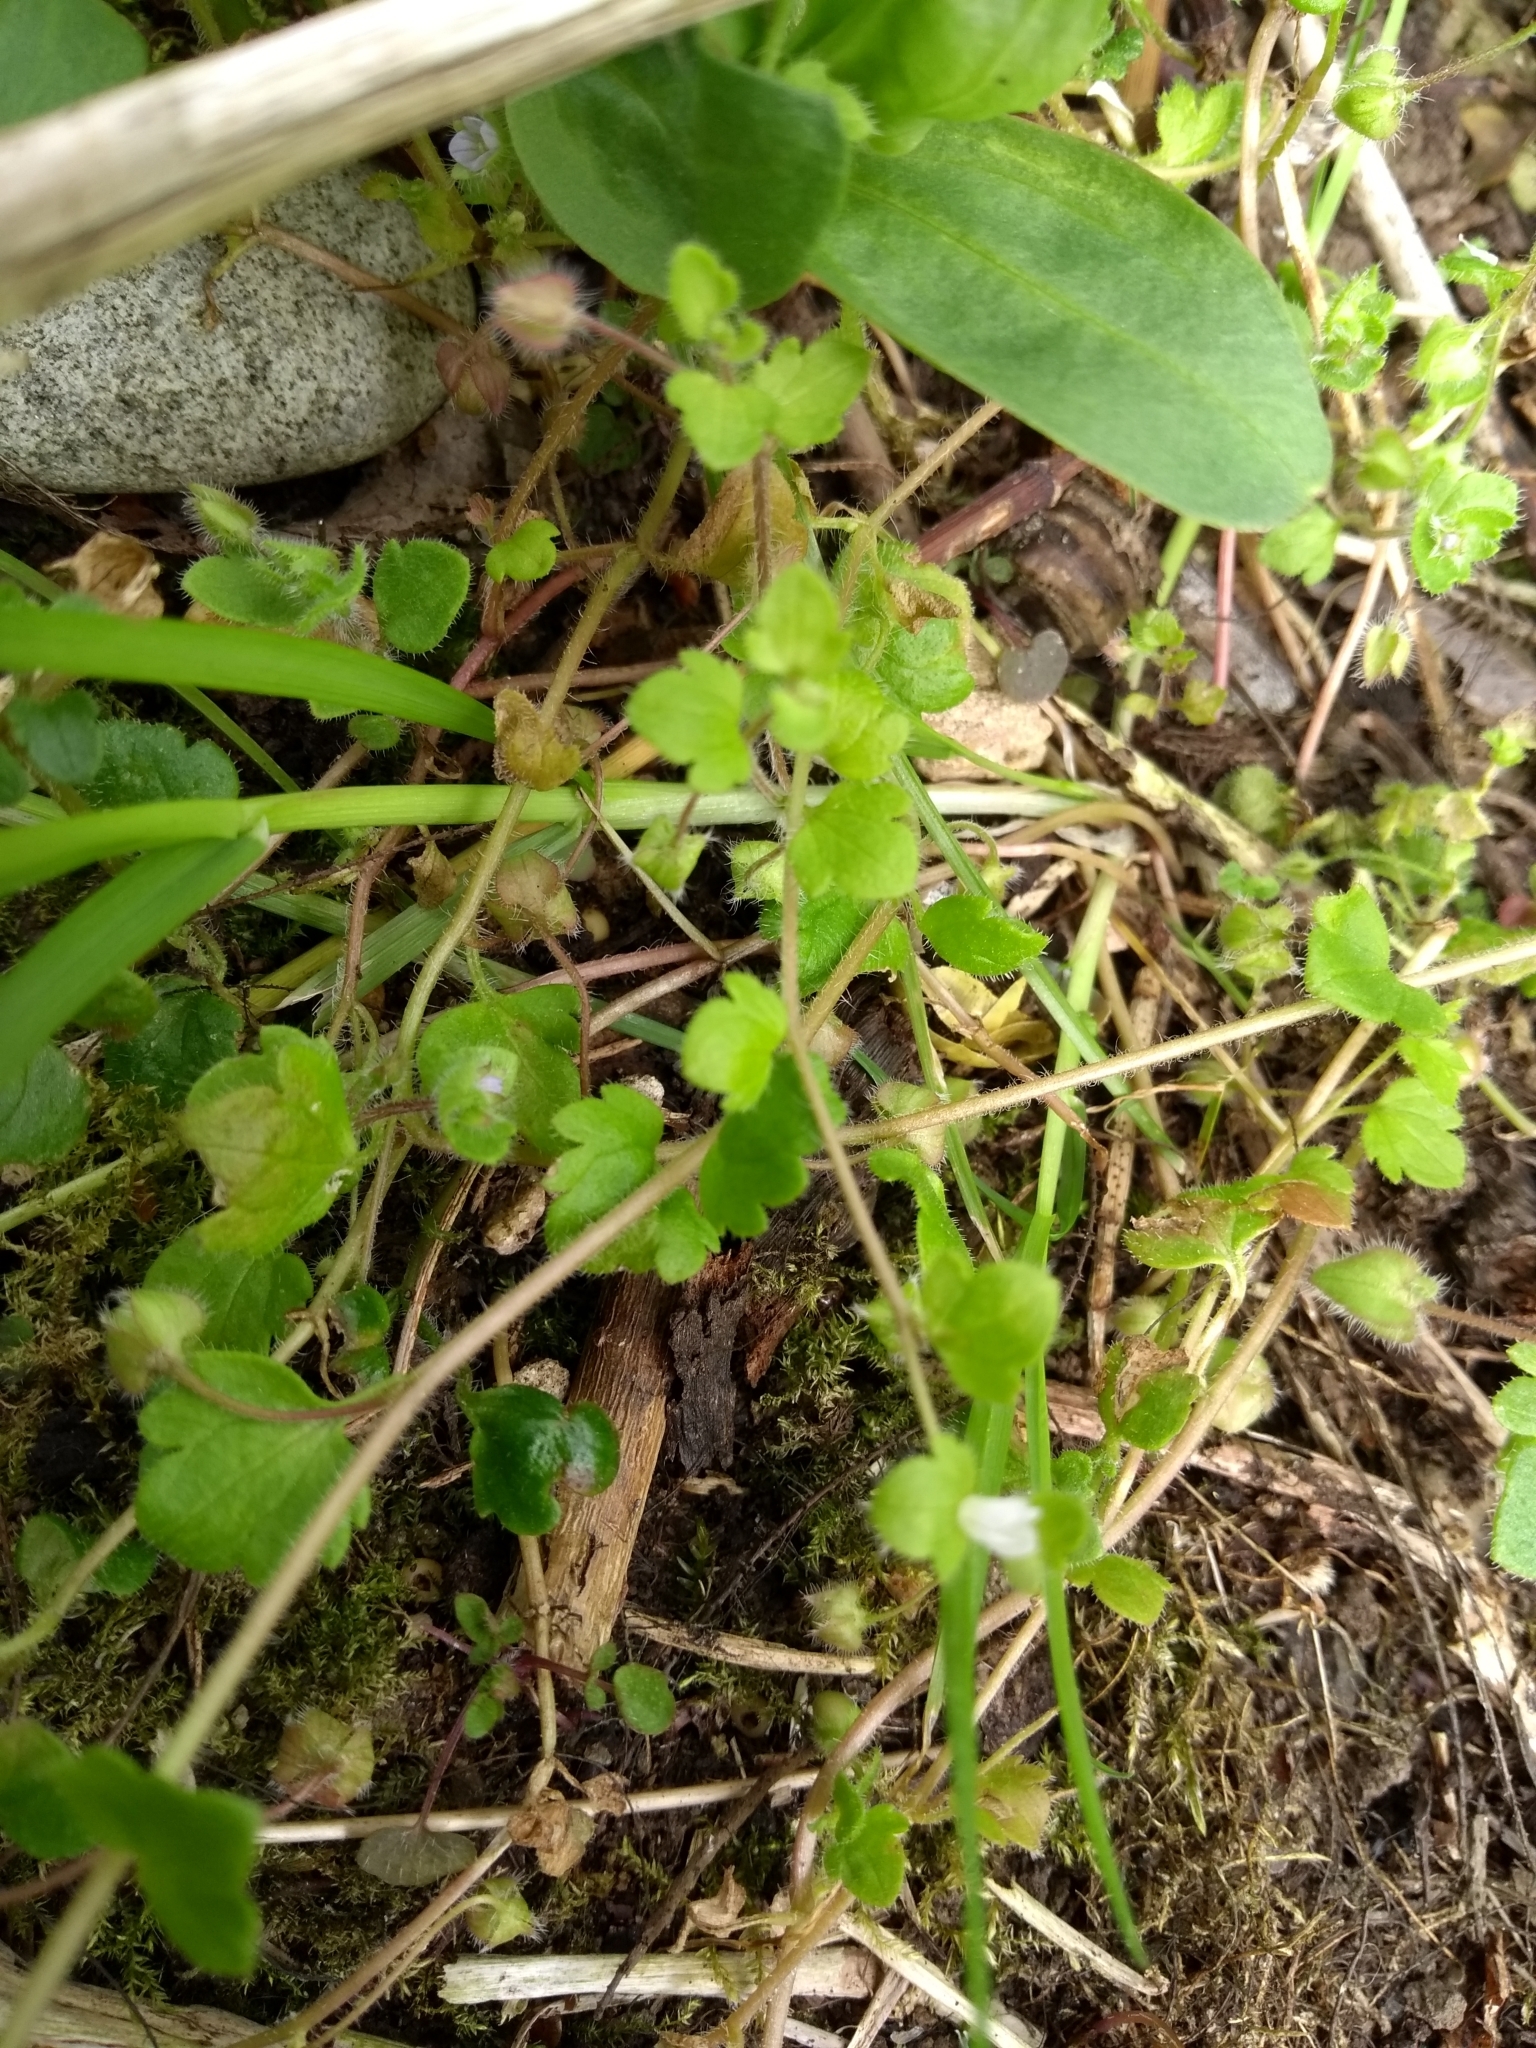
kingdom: Plantae
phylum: Tracheophyta
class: Magnoliopsida
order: Lamiales
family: Plantaginaceae
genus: Veronica
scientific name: Veronica hederifolia
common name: Ivy-leaved speedwell
